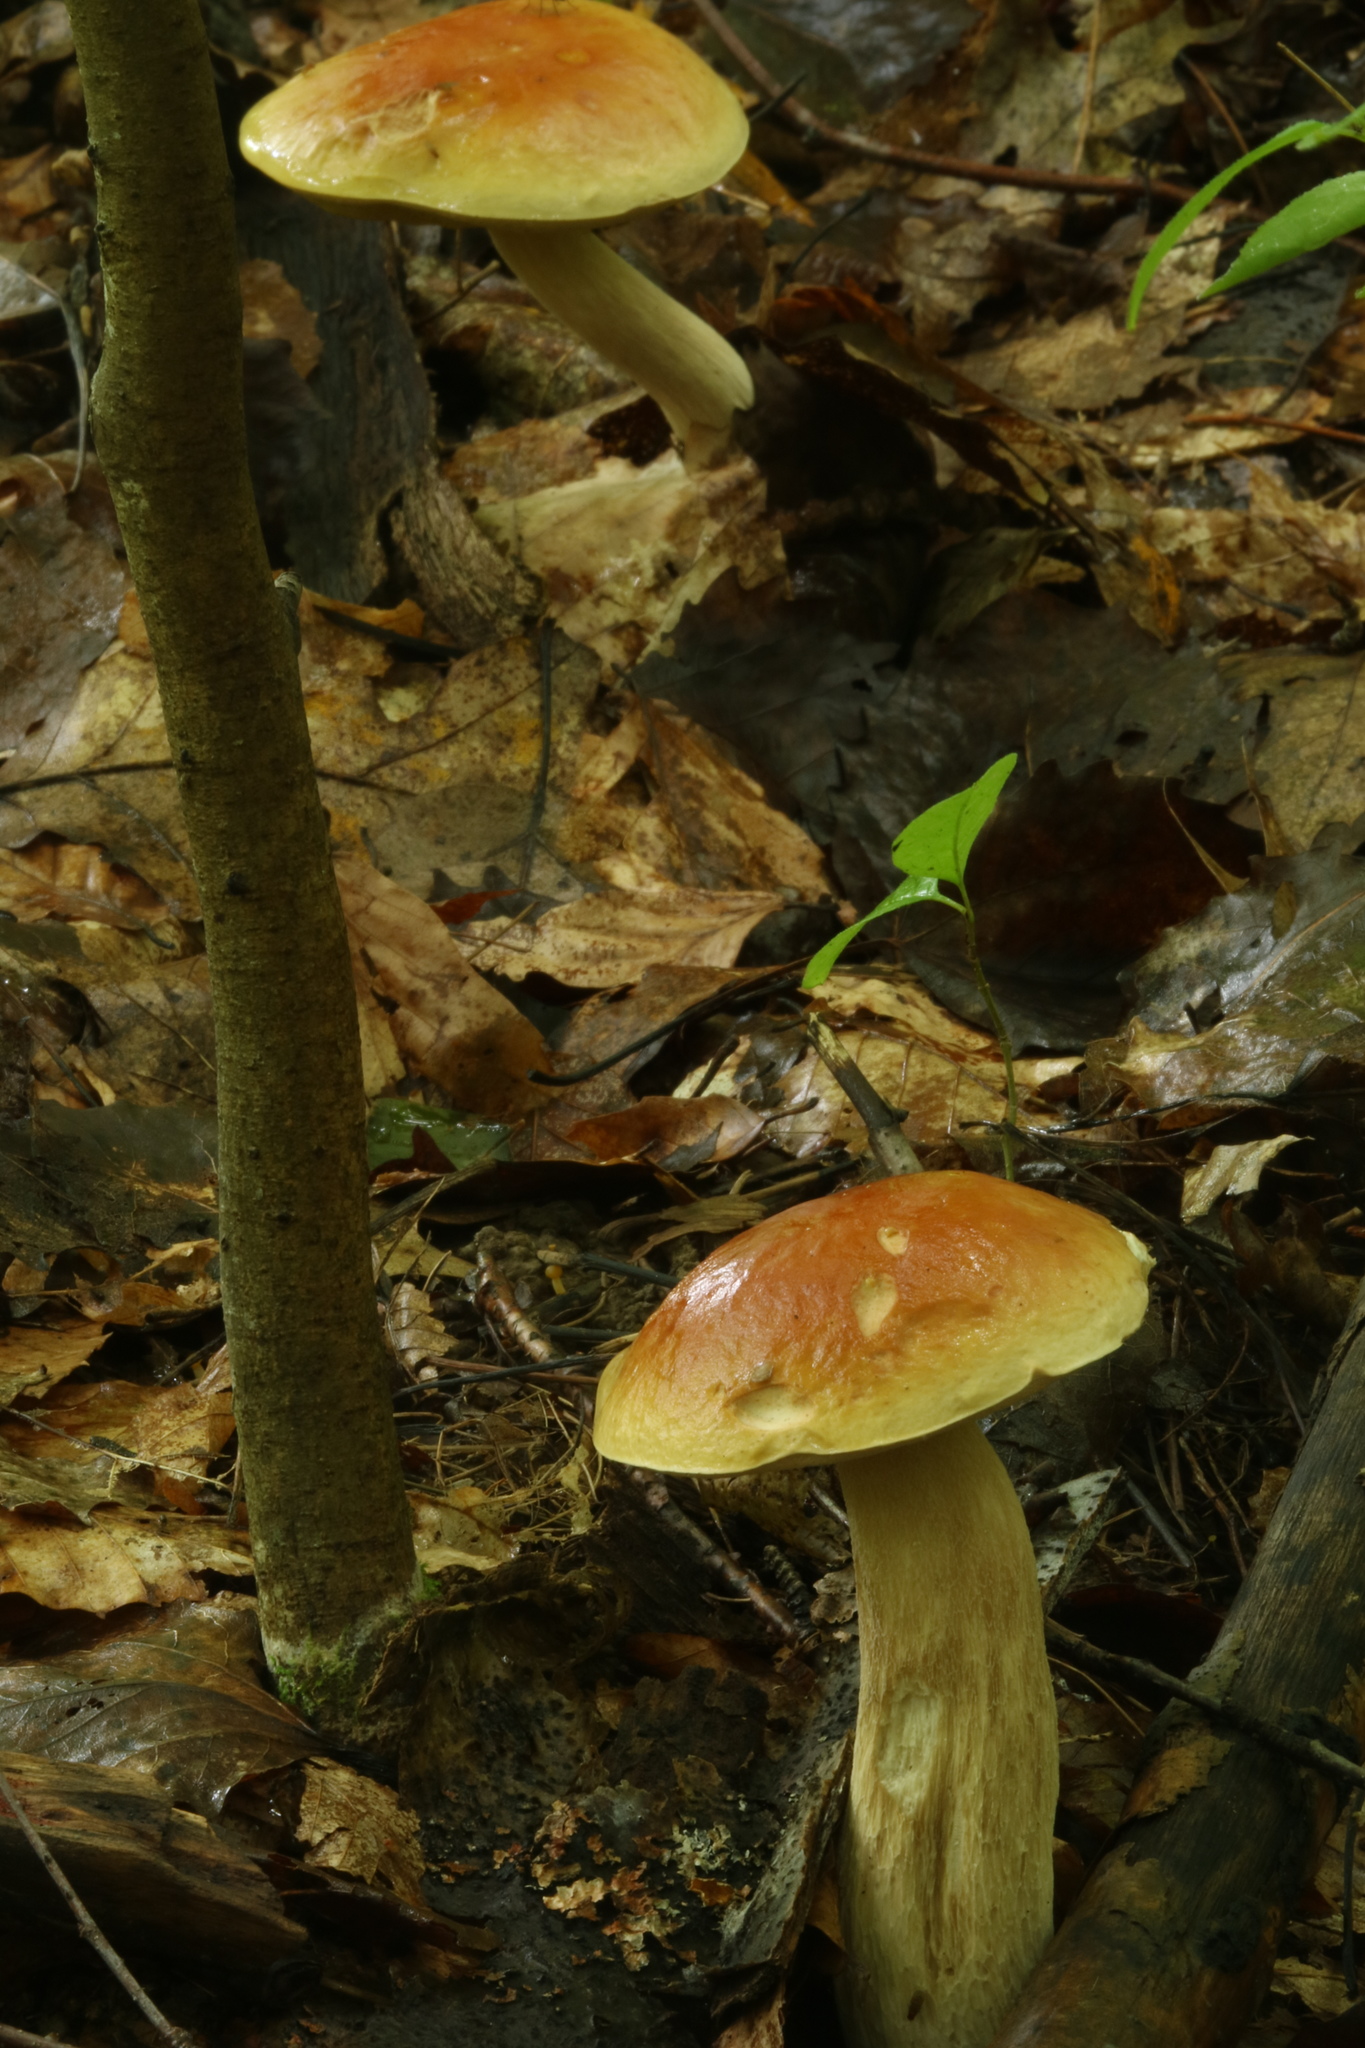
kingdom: Fungi
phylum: Basidiomycota
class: Agaricomycetes
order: Boletales
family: Boletaceae
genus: Boletus
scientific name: Boletus subcaerulescens
